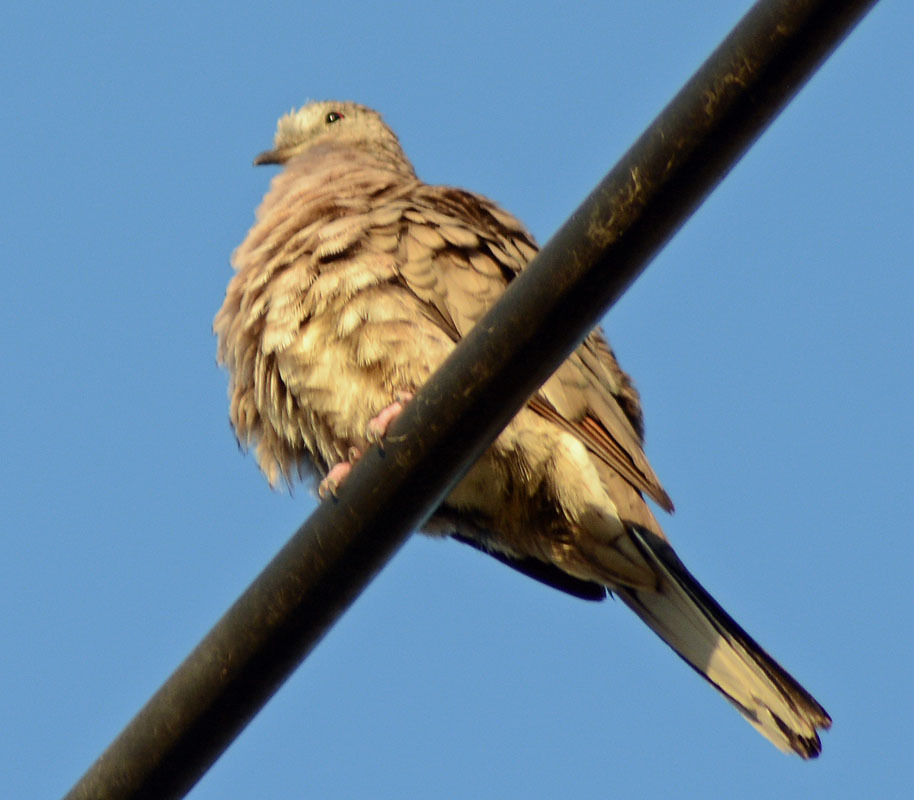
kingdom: Animalia
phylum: Chordata
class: Aves
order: Columbiformes
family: Columbidae
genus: Columbina
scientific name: Columbina inca
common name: Inca dove
